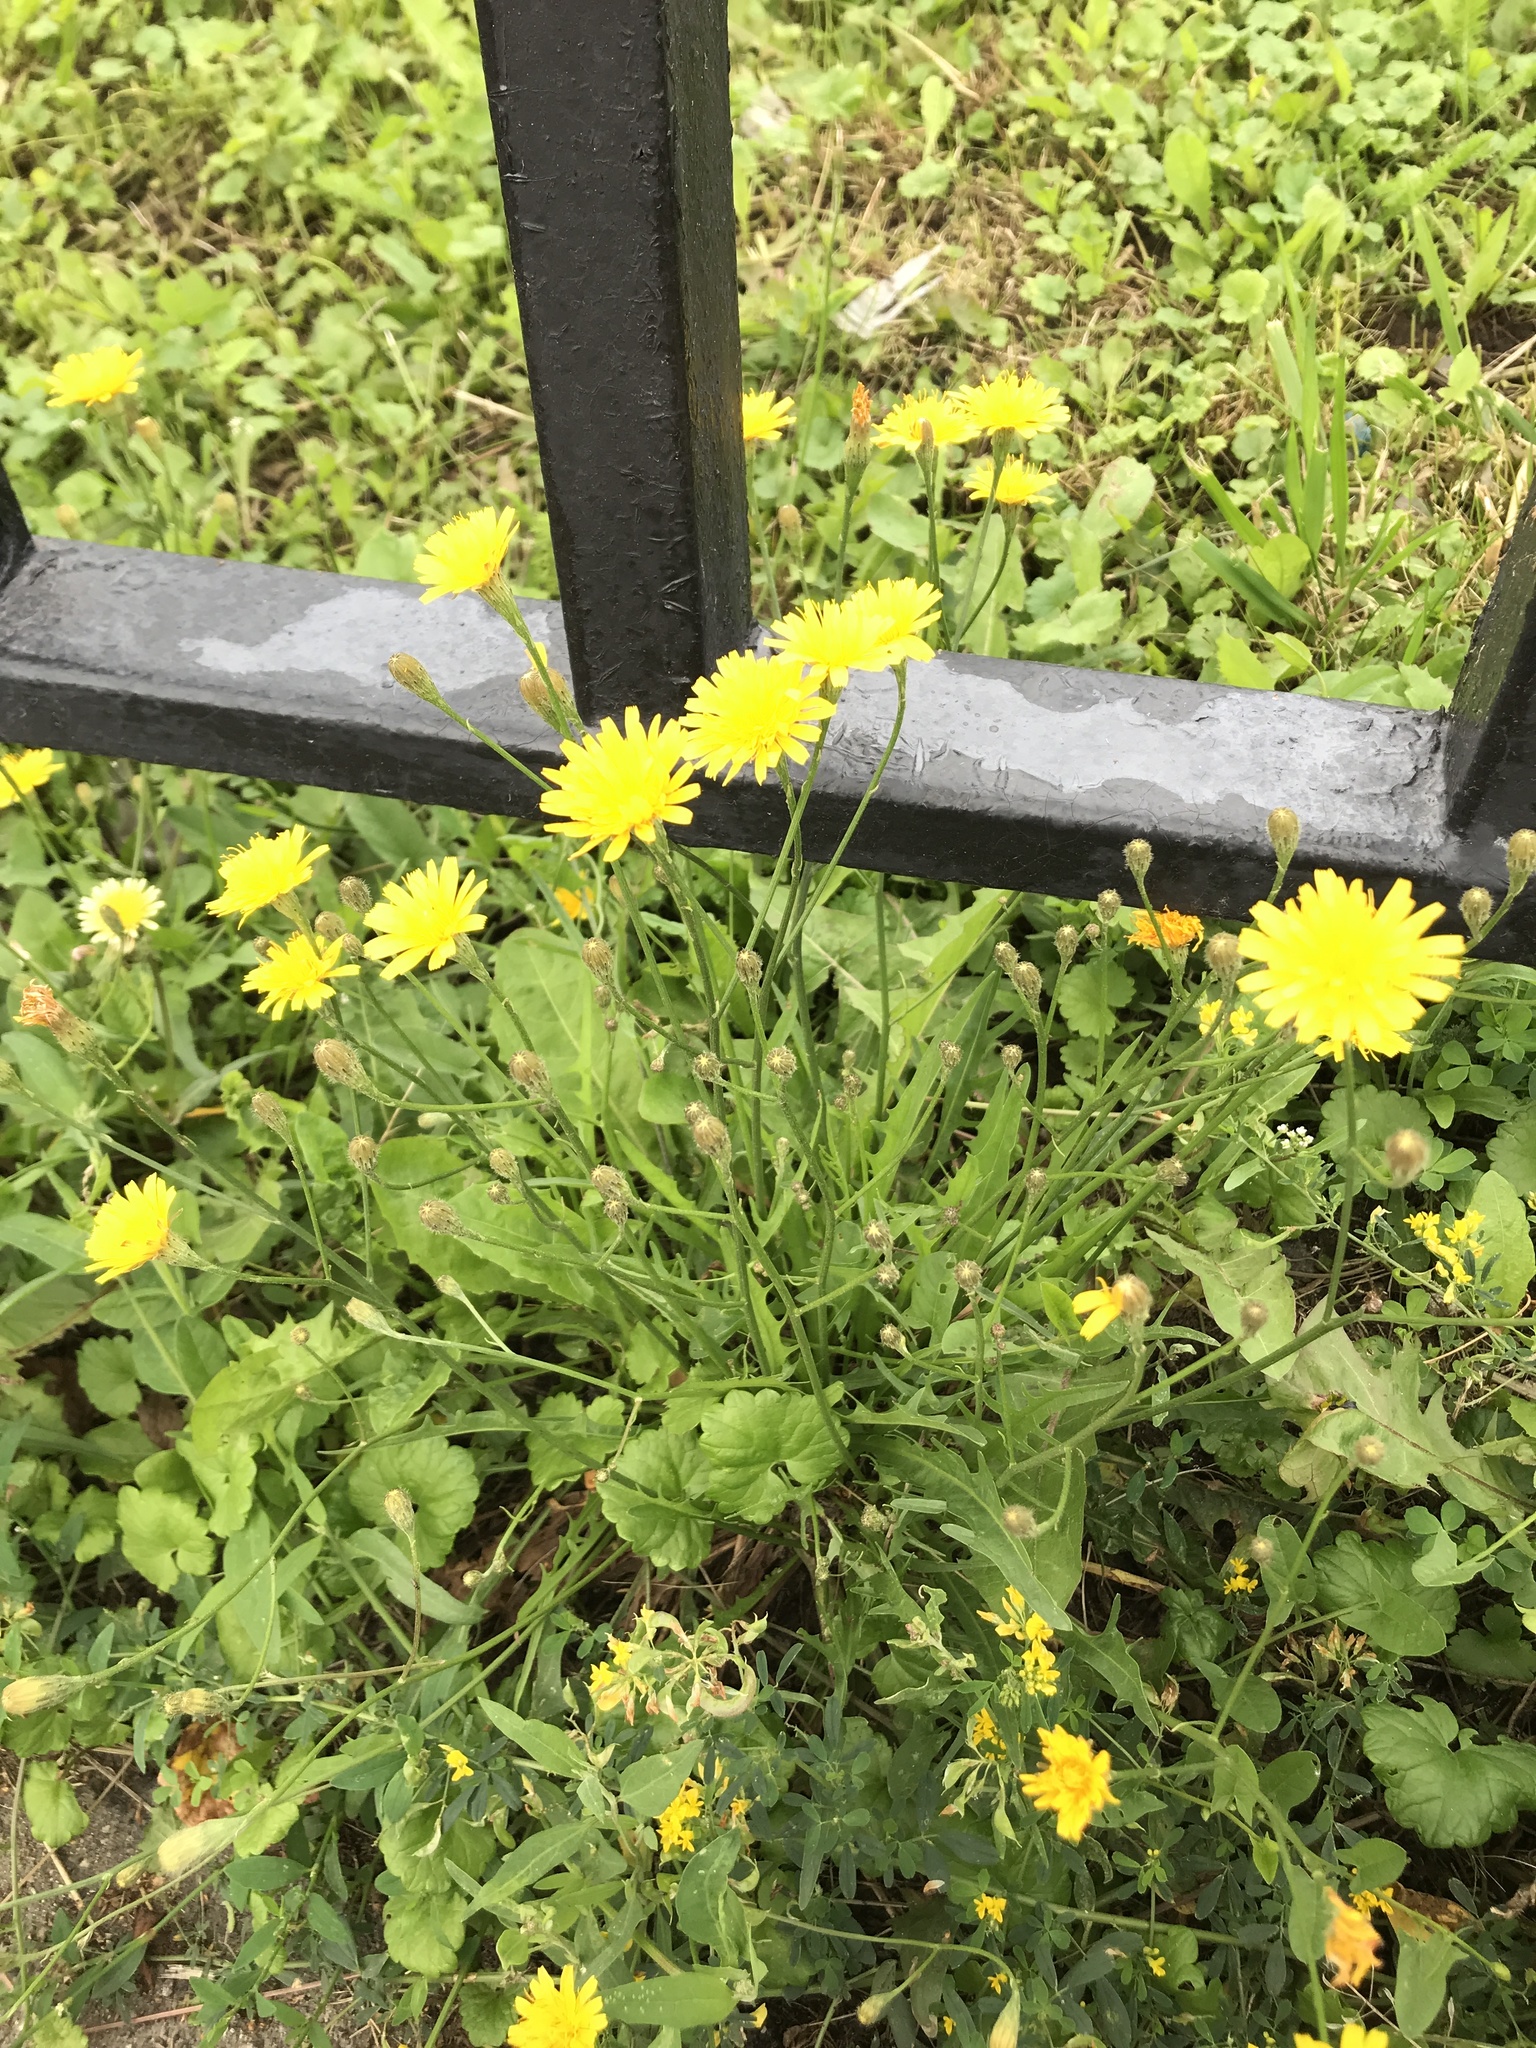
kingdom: Plantae
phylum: Tracheophyta
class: Magnoliopsida
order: Asterales
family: Asteraceae
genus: Scorzoneroides
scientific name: Scorzoneroides autumnalis
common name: Autumn hawkbit
